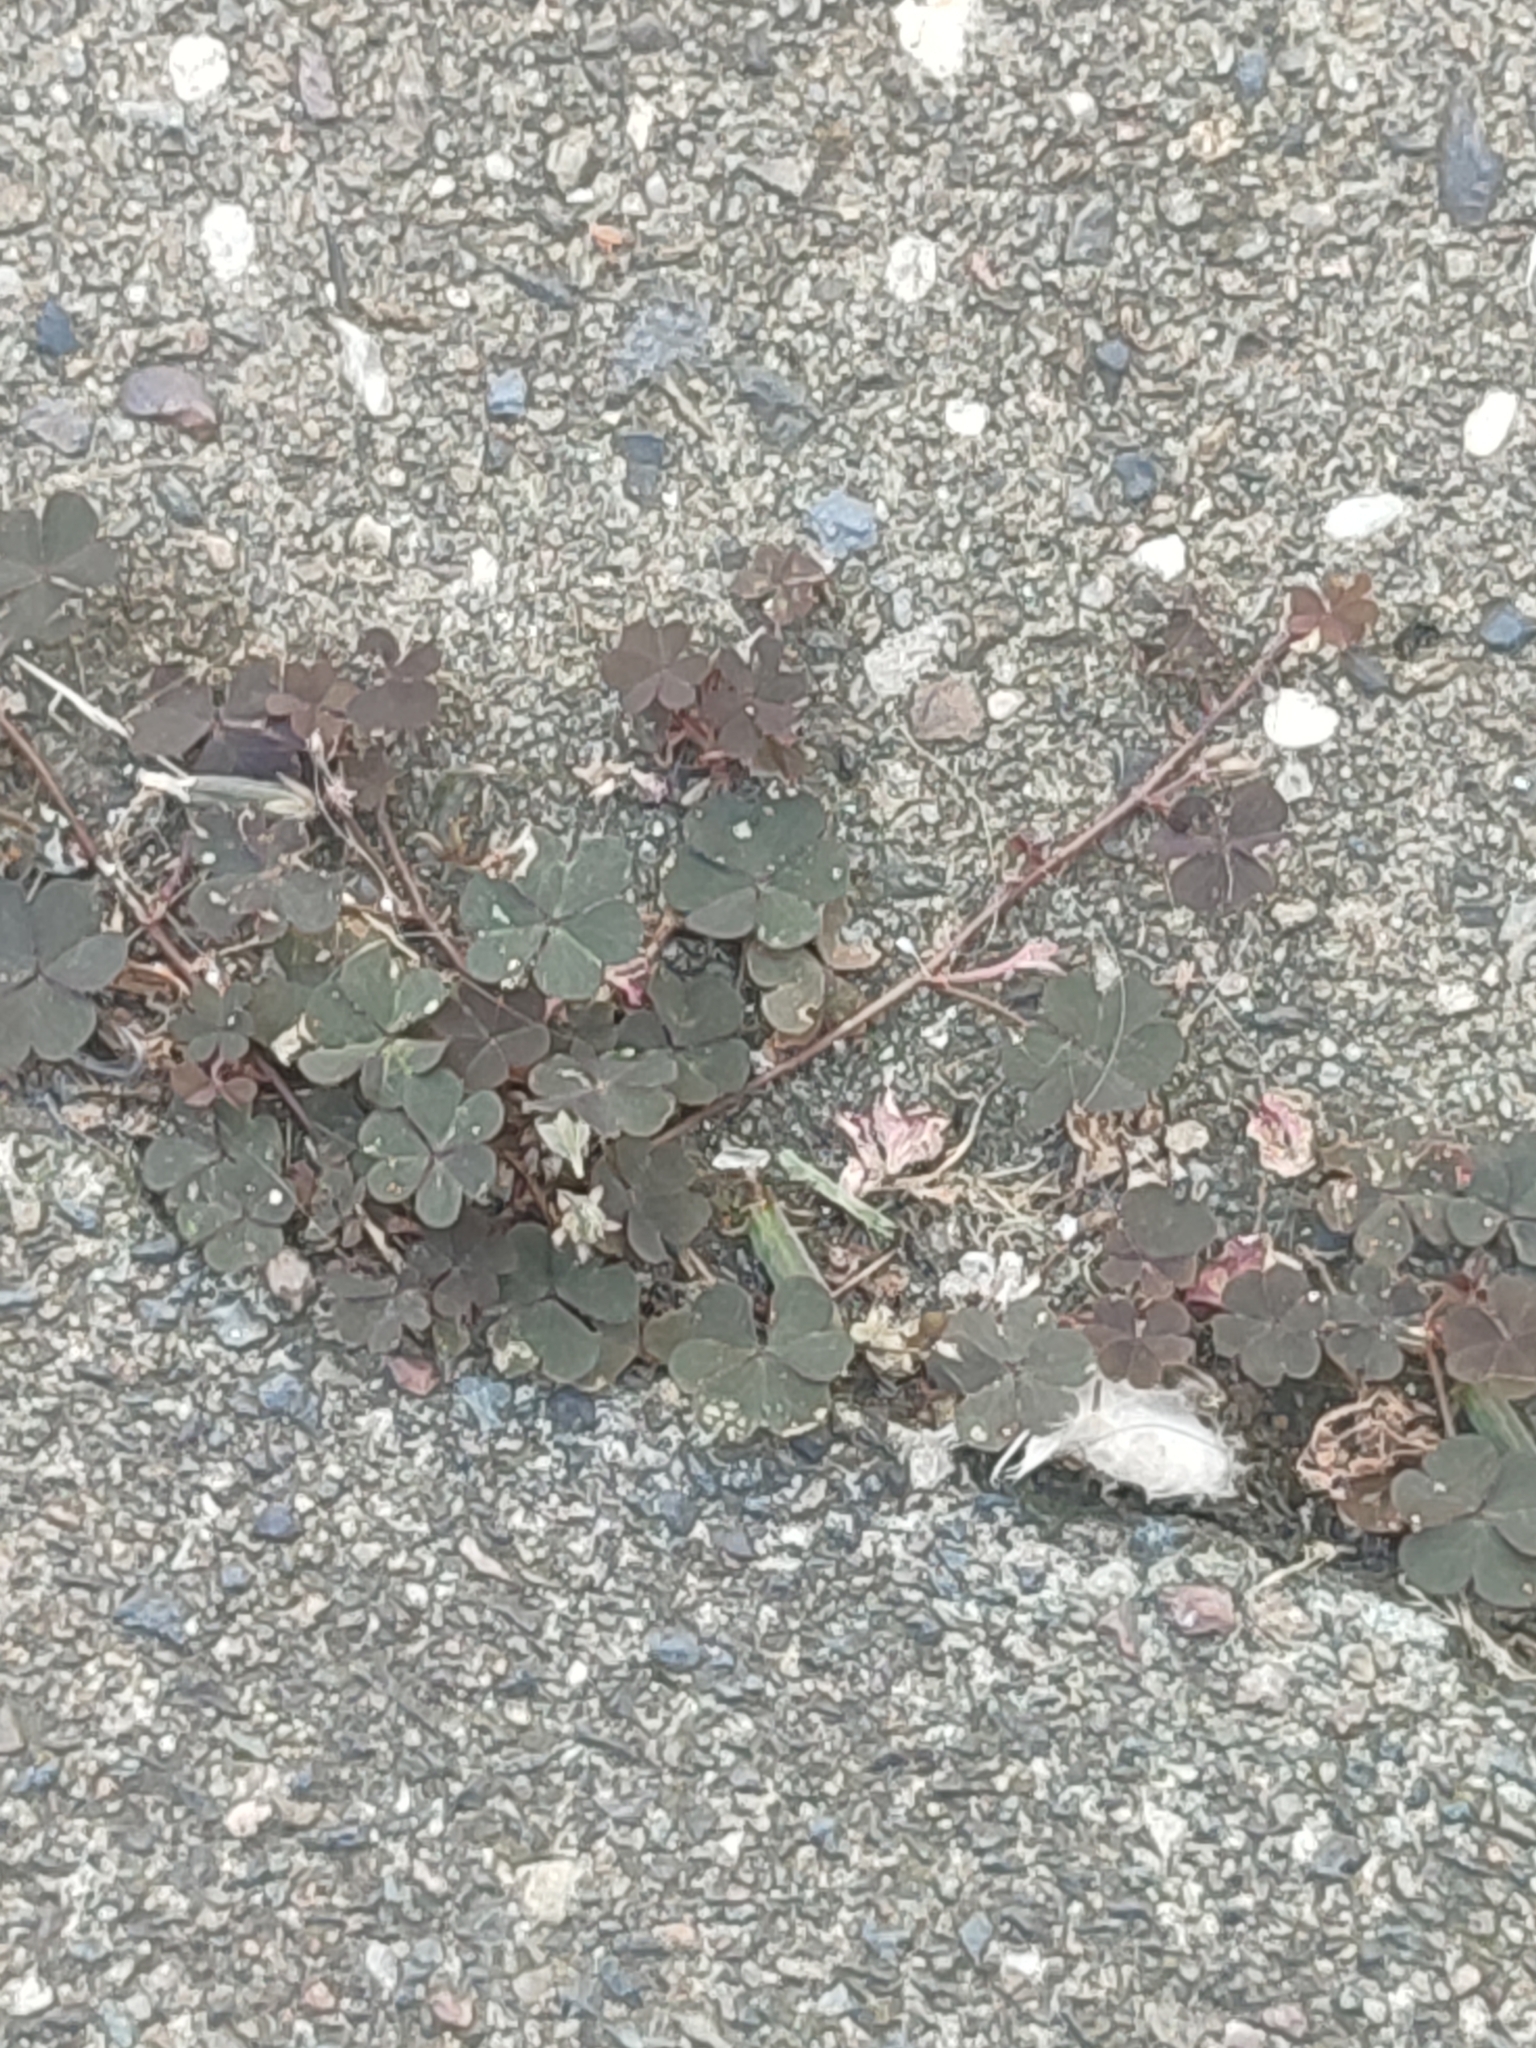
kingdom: Plantae
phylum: Tracheophyta
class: Magnoliopsida
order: Oxalidales
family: Oxalidaceae
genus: Oxalis
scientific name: Oxalis corniculata
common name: Procumbent yellow-sorrel
